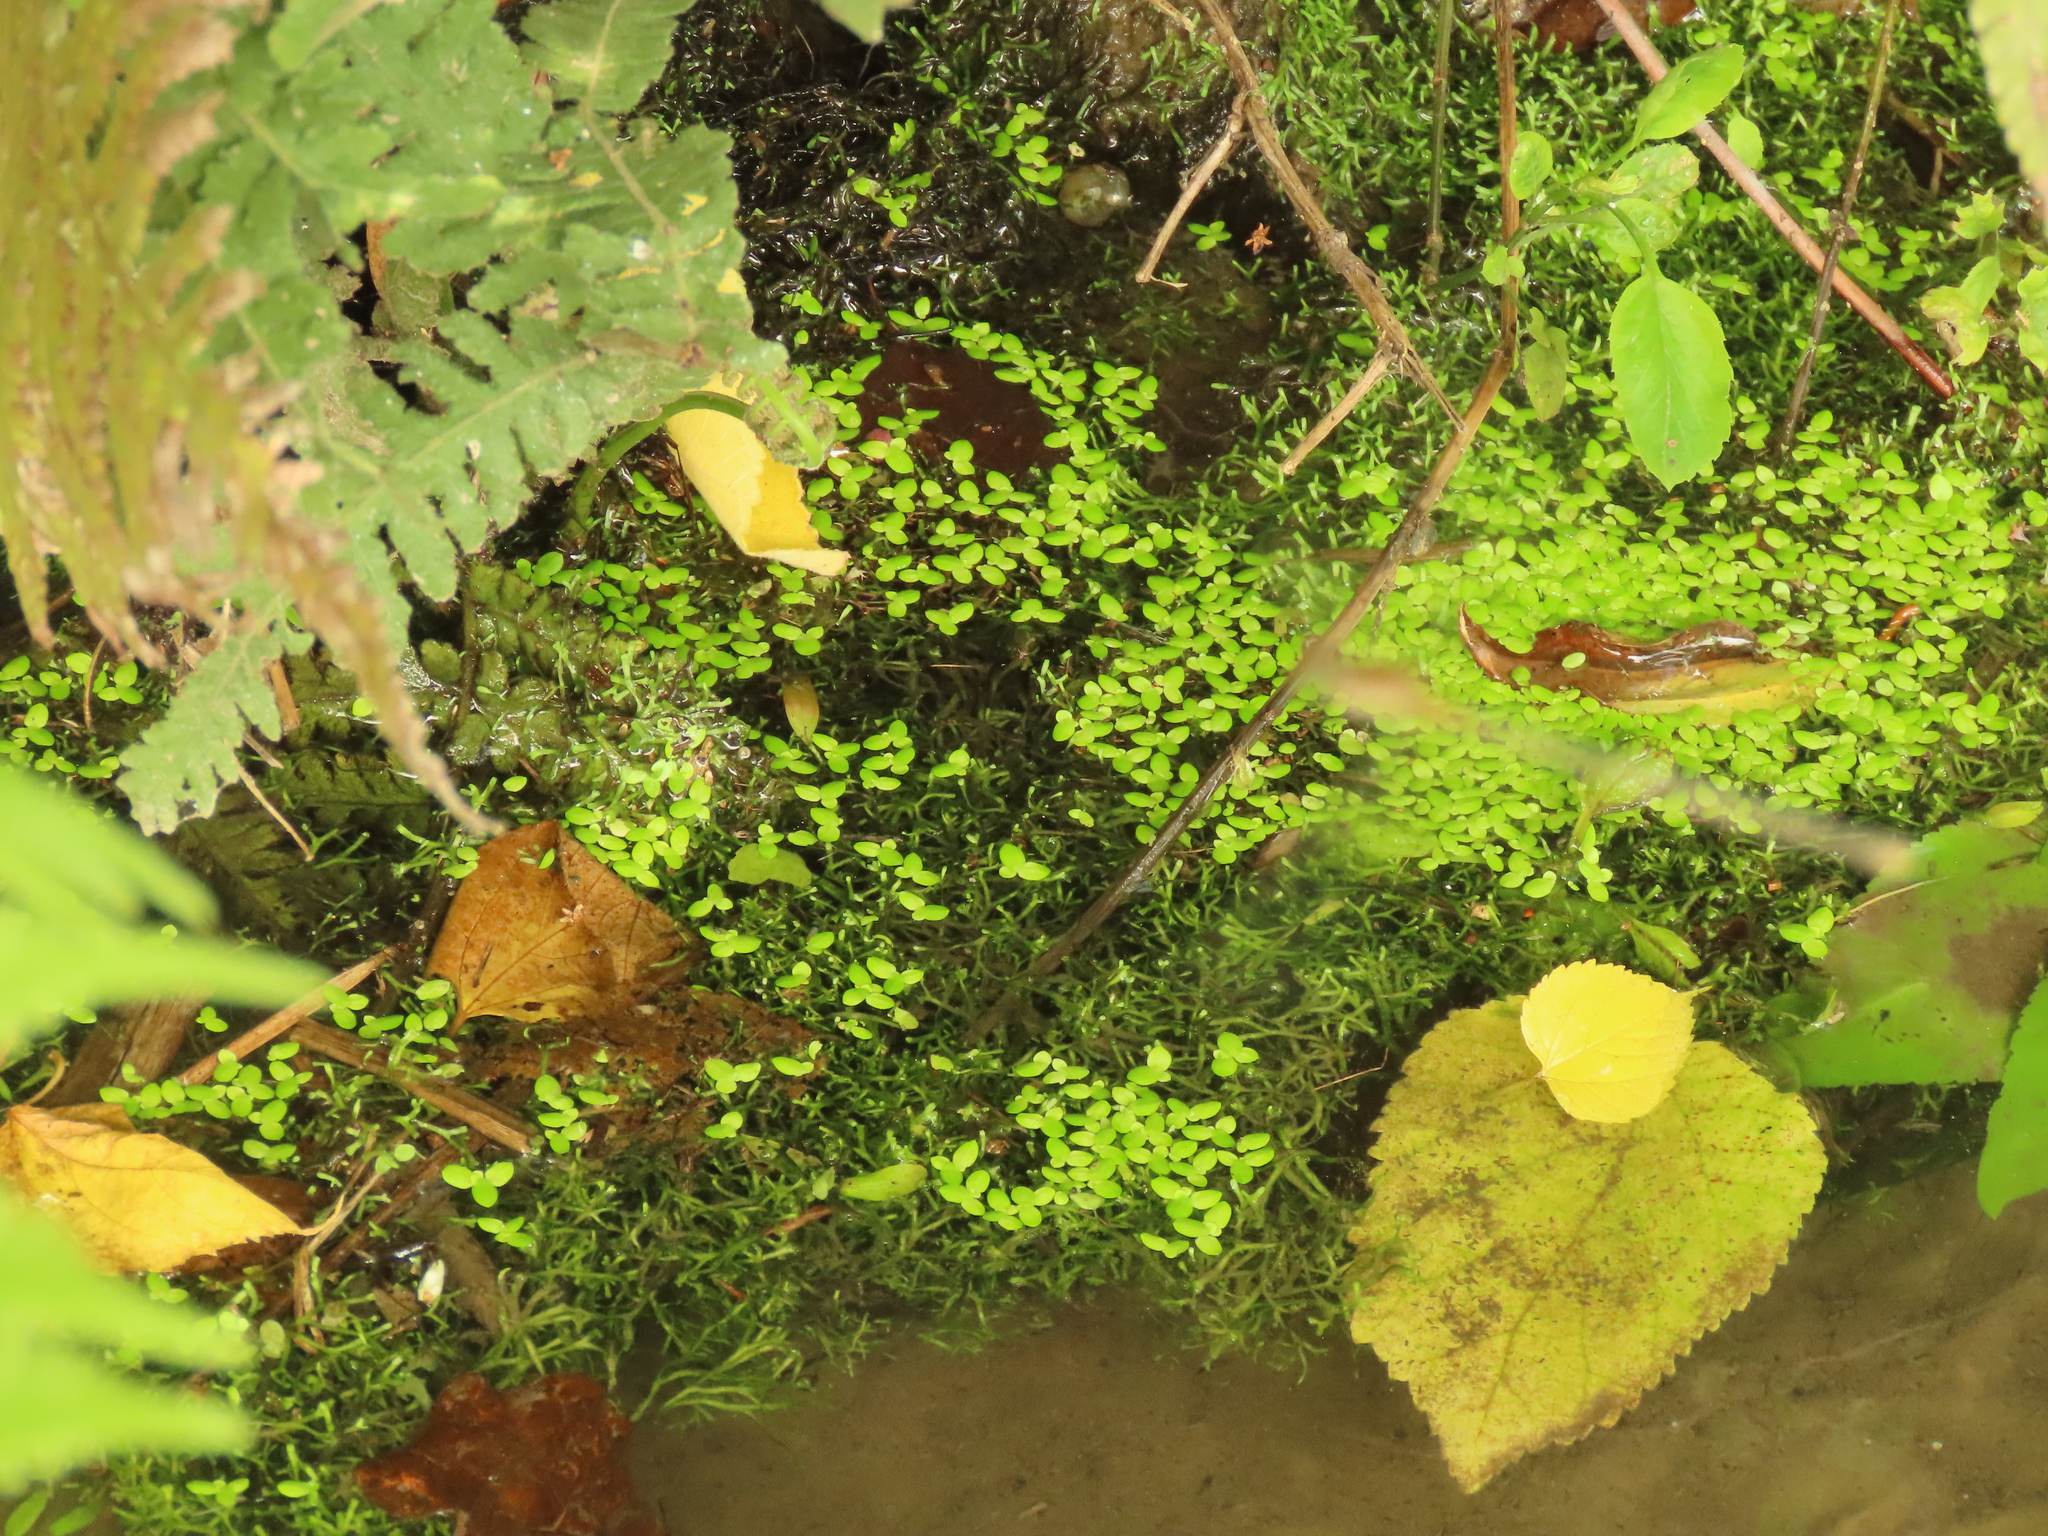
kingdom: Plantae
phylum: Tracheophyta
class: Liliopsida
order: Alismatales
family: Araceae
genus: Lemna
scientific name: Lemna aequinoctialis
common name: Duckweed
